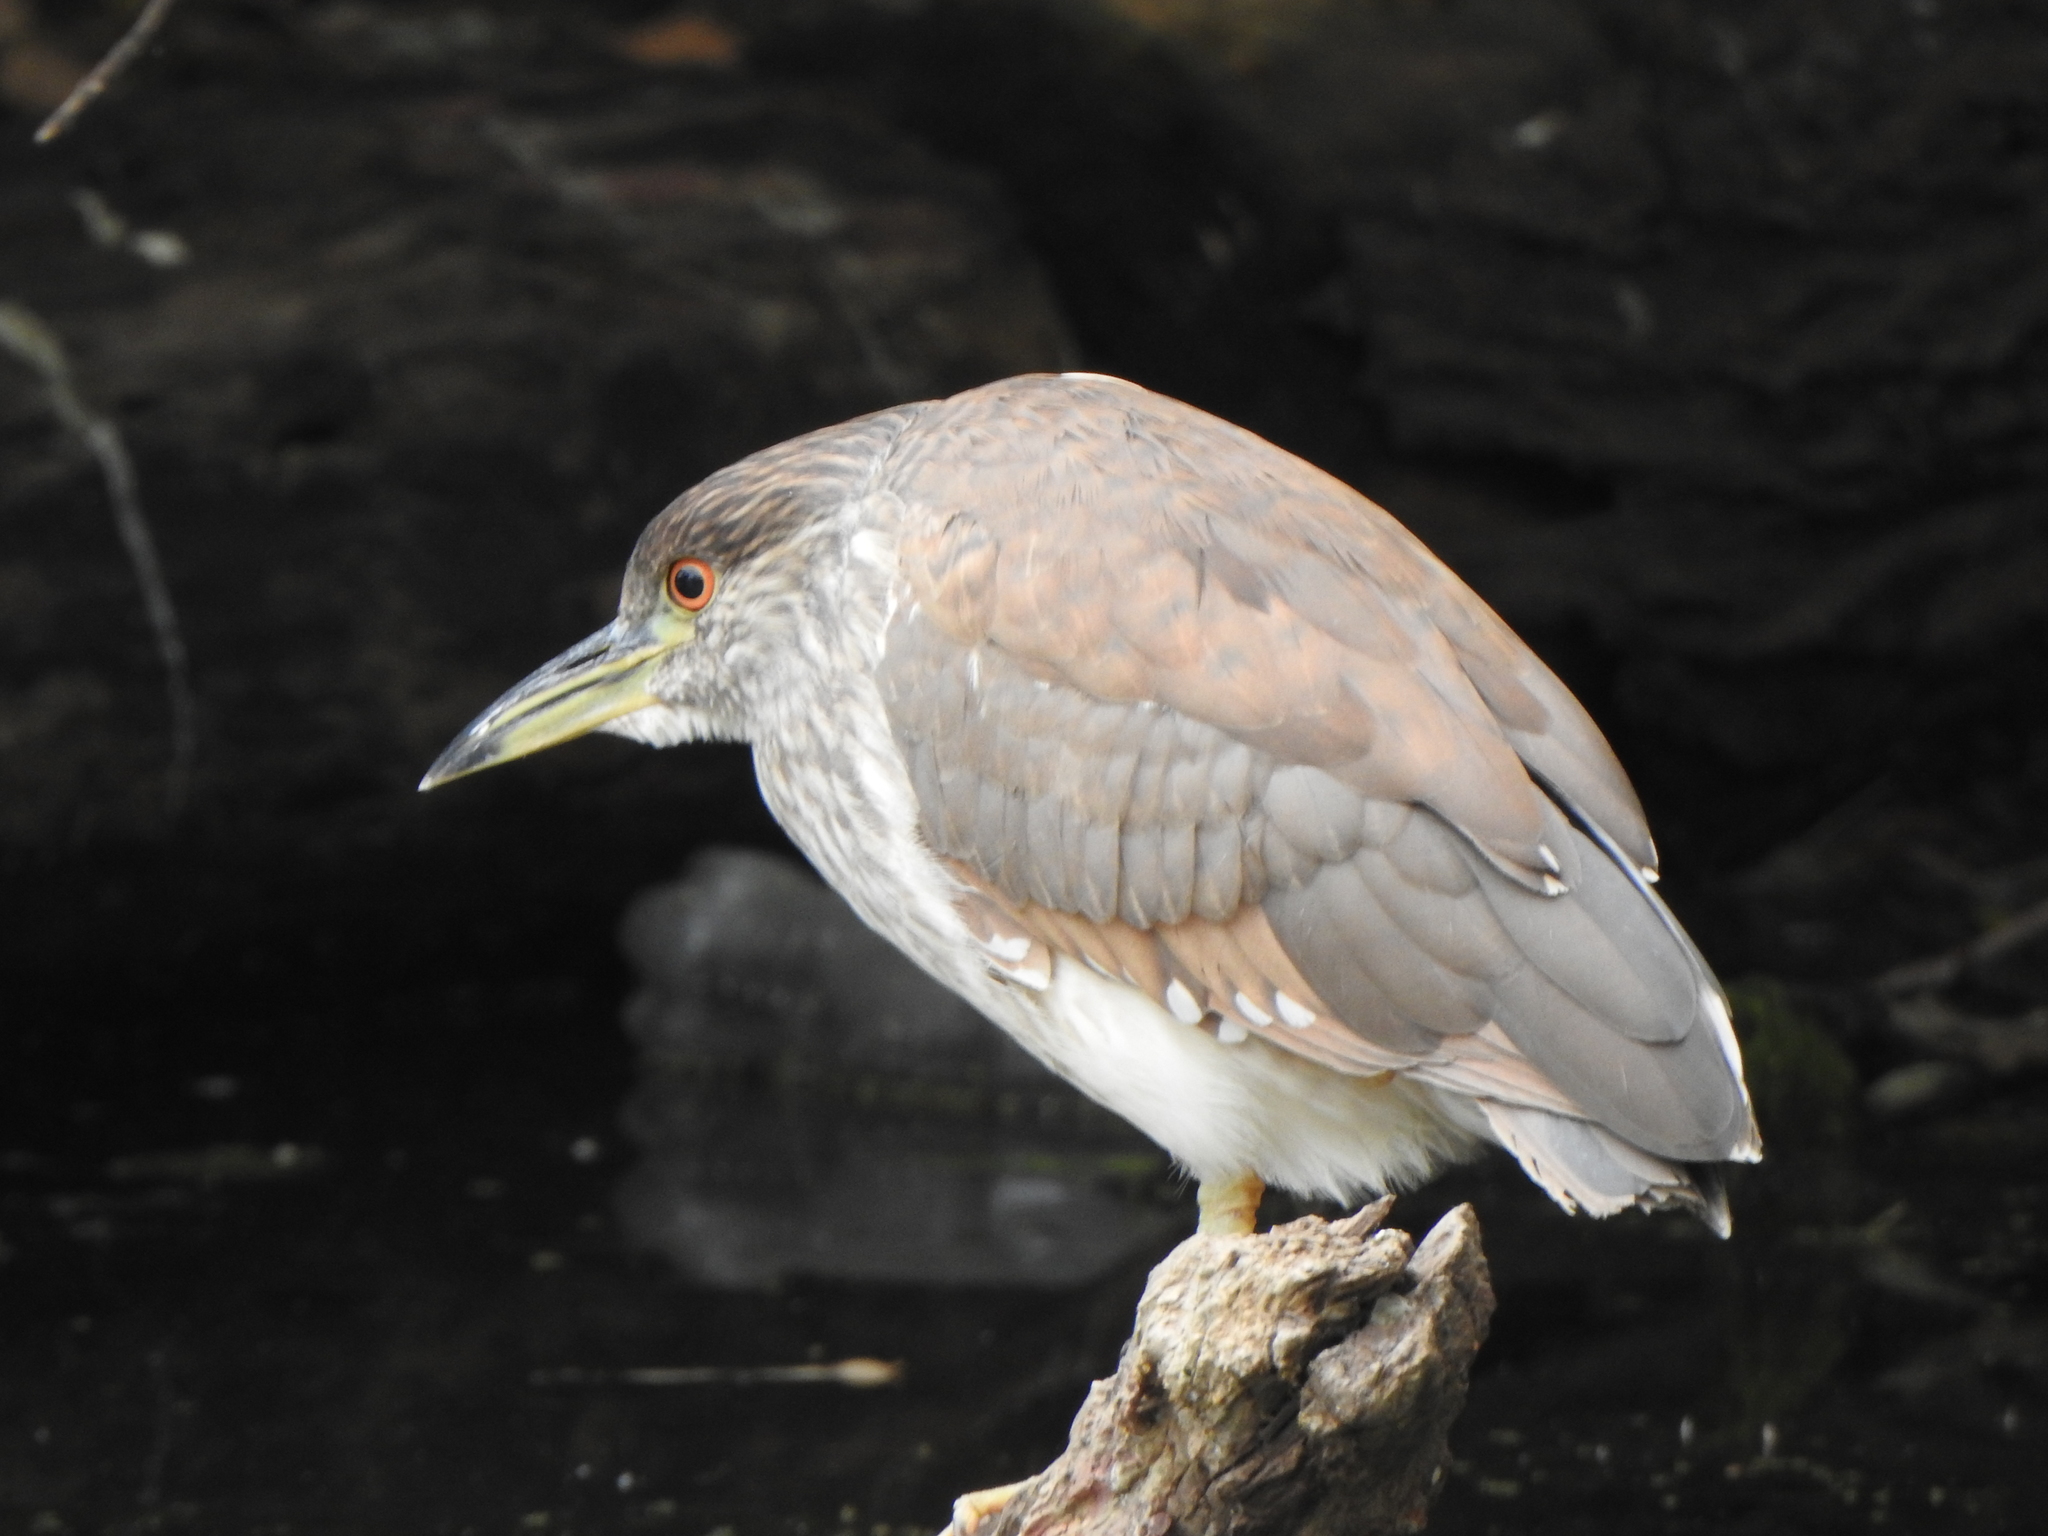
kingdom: Animalia
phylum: Chordata
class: Aves
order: Pelecaniformes
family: Ardeidae
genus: Nycticorax
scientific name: Nycticorax nycticorax
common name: Black-crowned night heron
